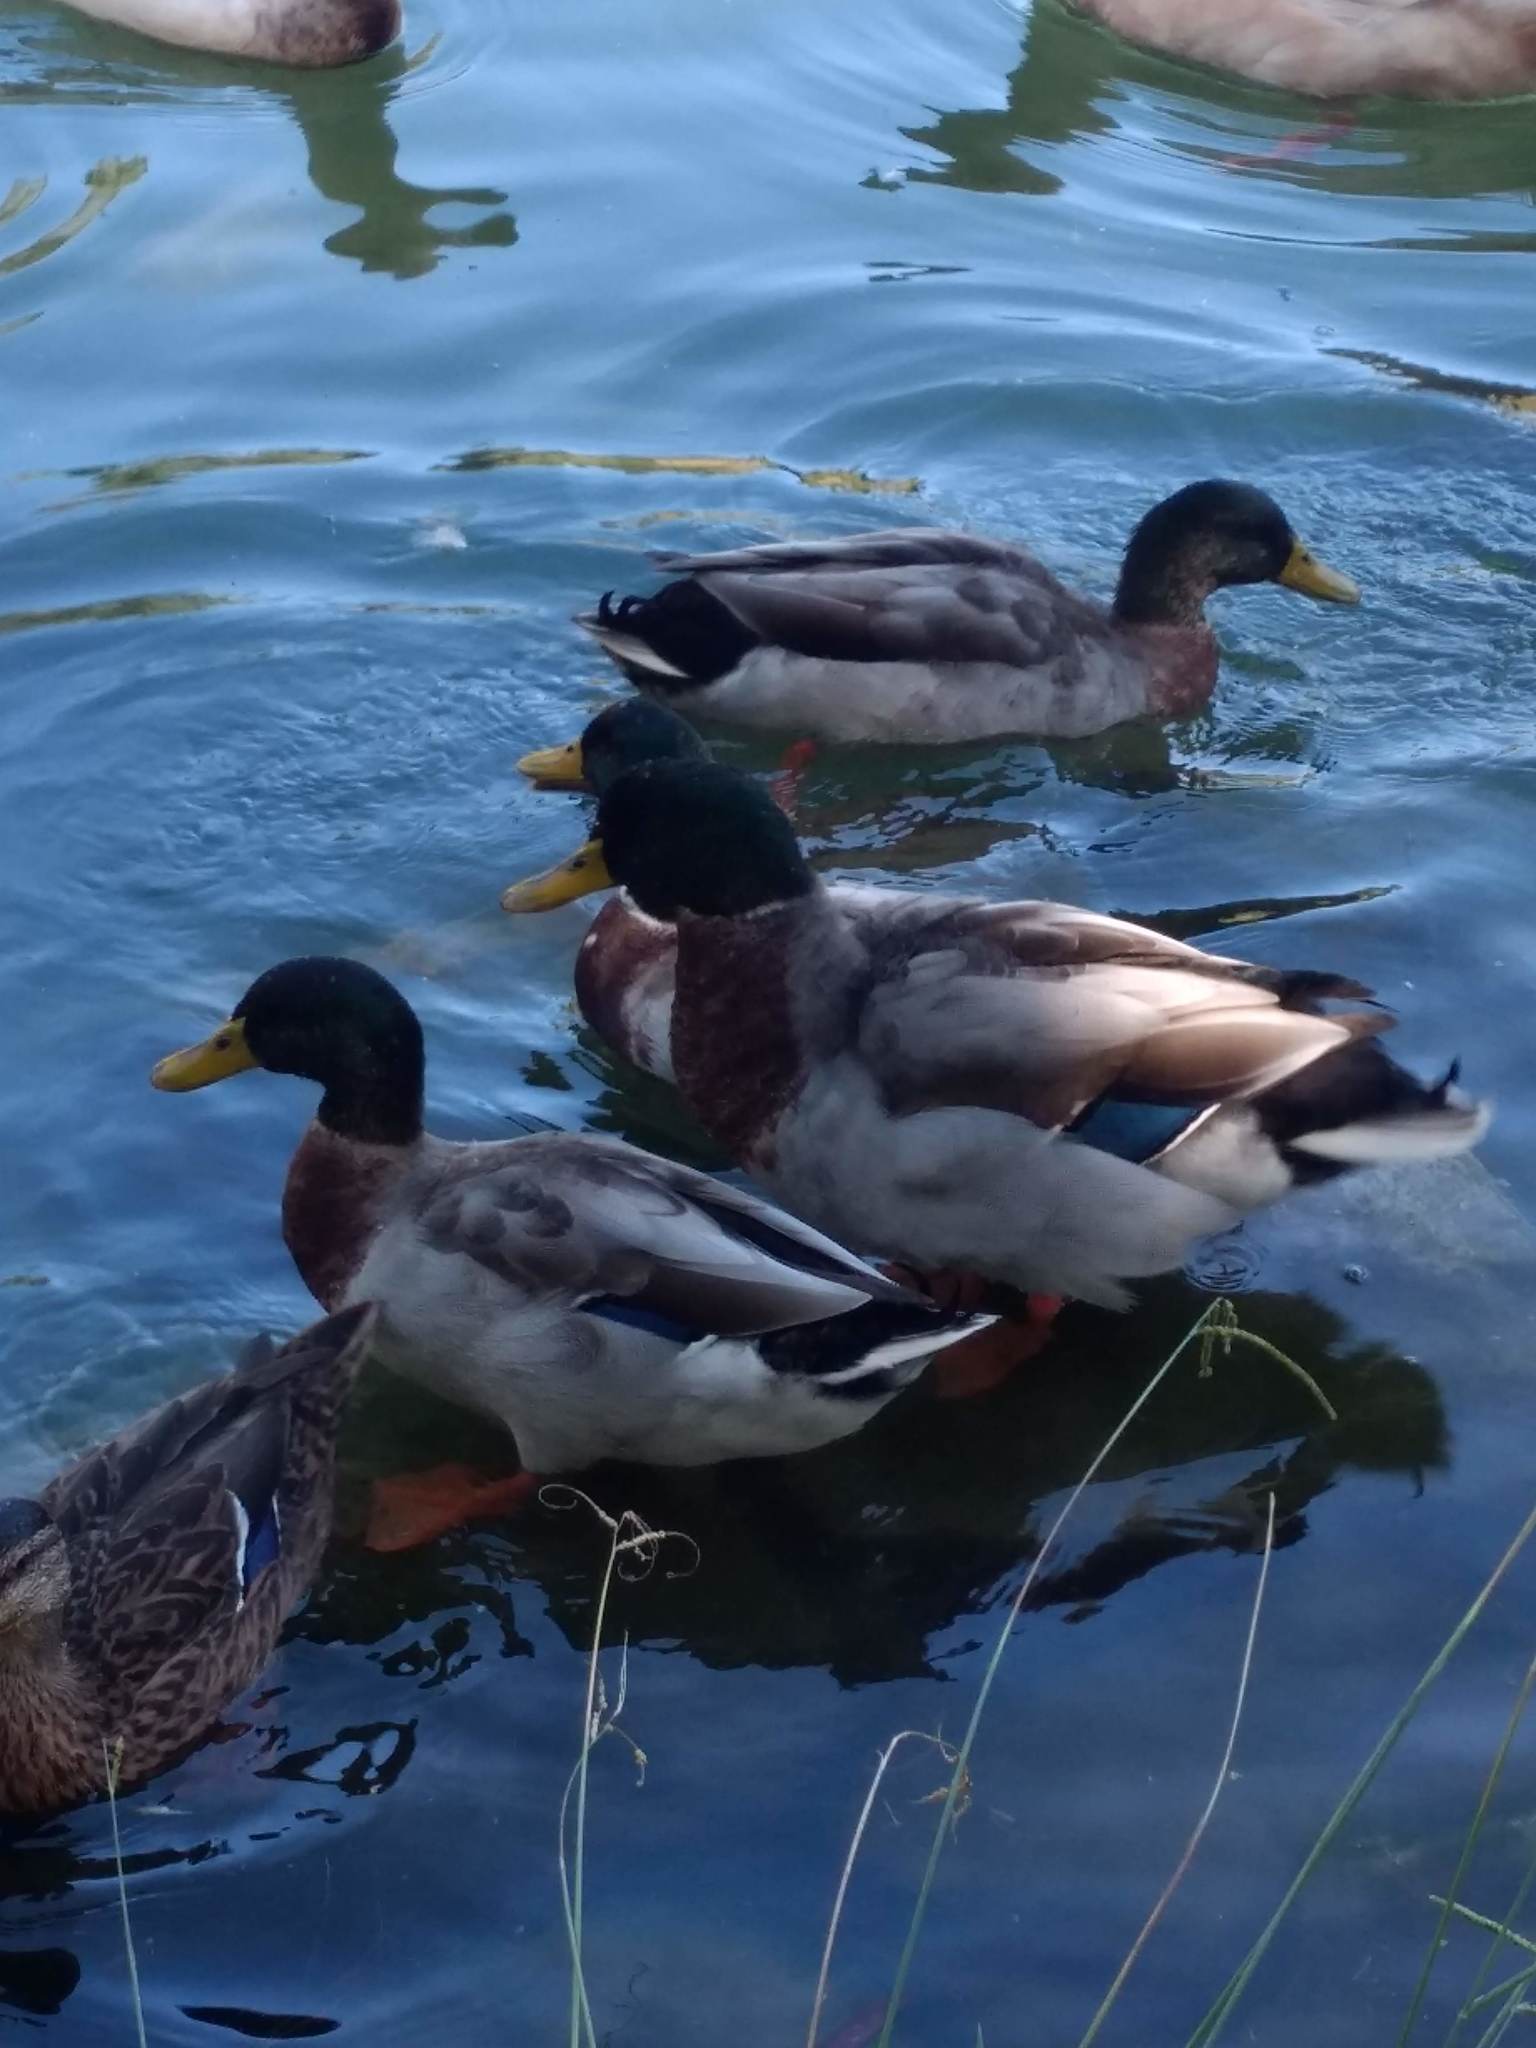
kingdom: Animalia
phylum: Chordata
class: Aves
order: Anseriformes
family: Anatidae
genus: Anas
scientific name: Anas platyrhynchos
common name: Mallard
